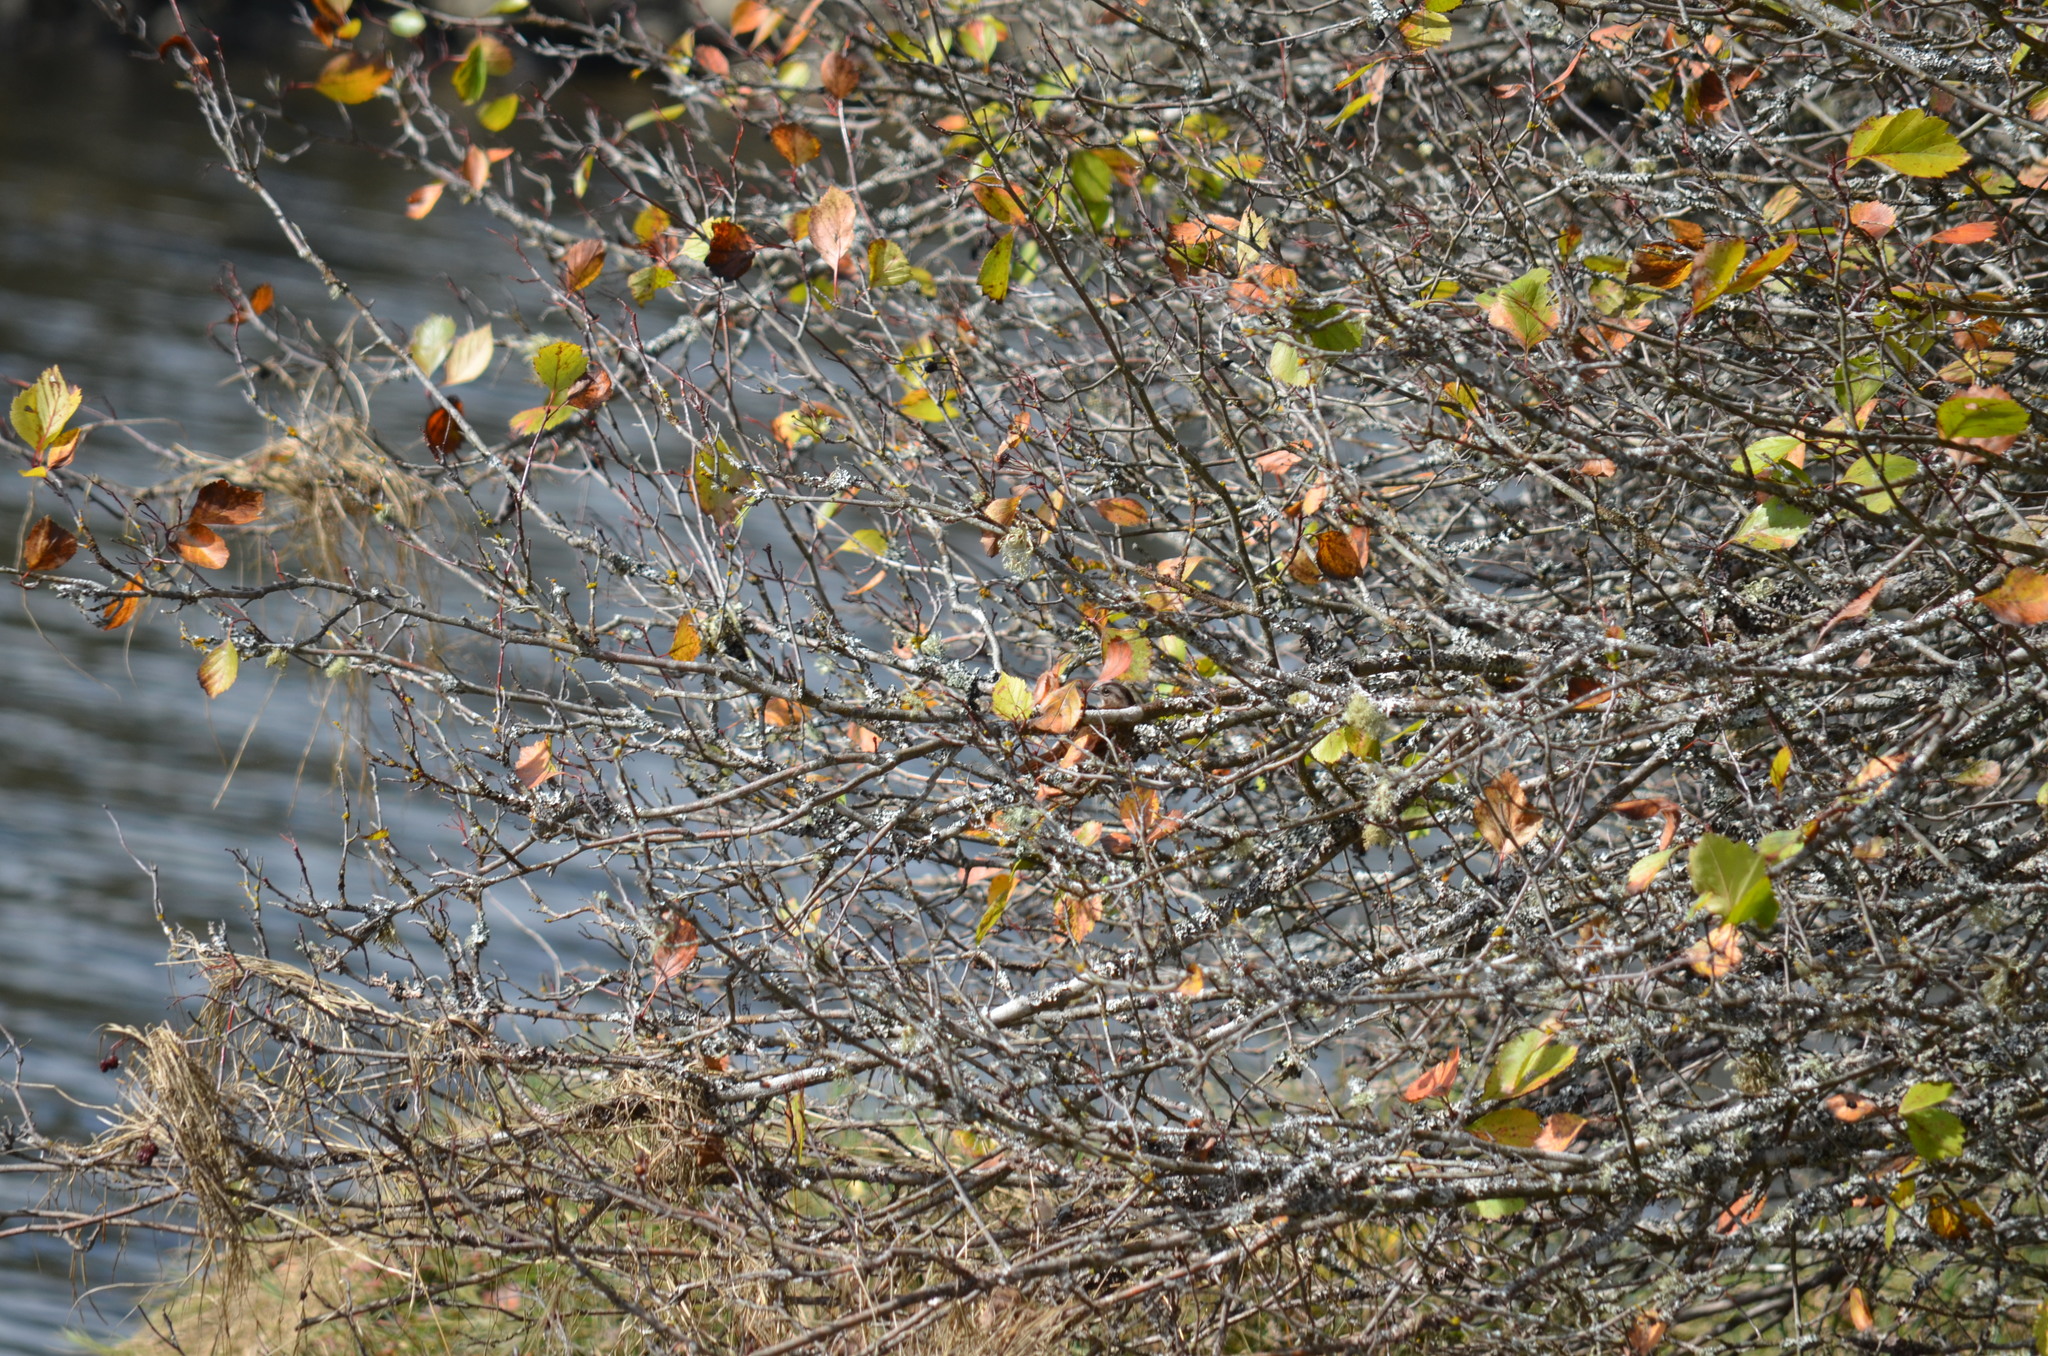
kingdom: Animalia
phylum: Chordata
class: Aves
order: Passeriformes
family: Passerellidae
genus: Melospiza
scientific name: Melospiza melodia
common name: Song sparrow
